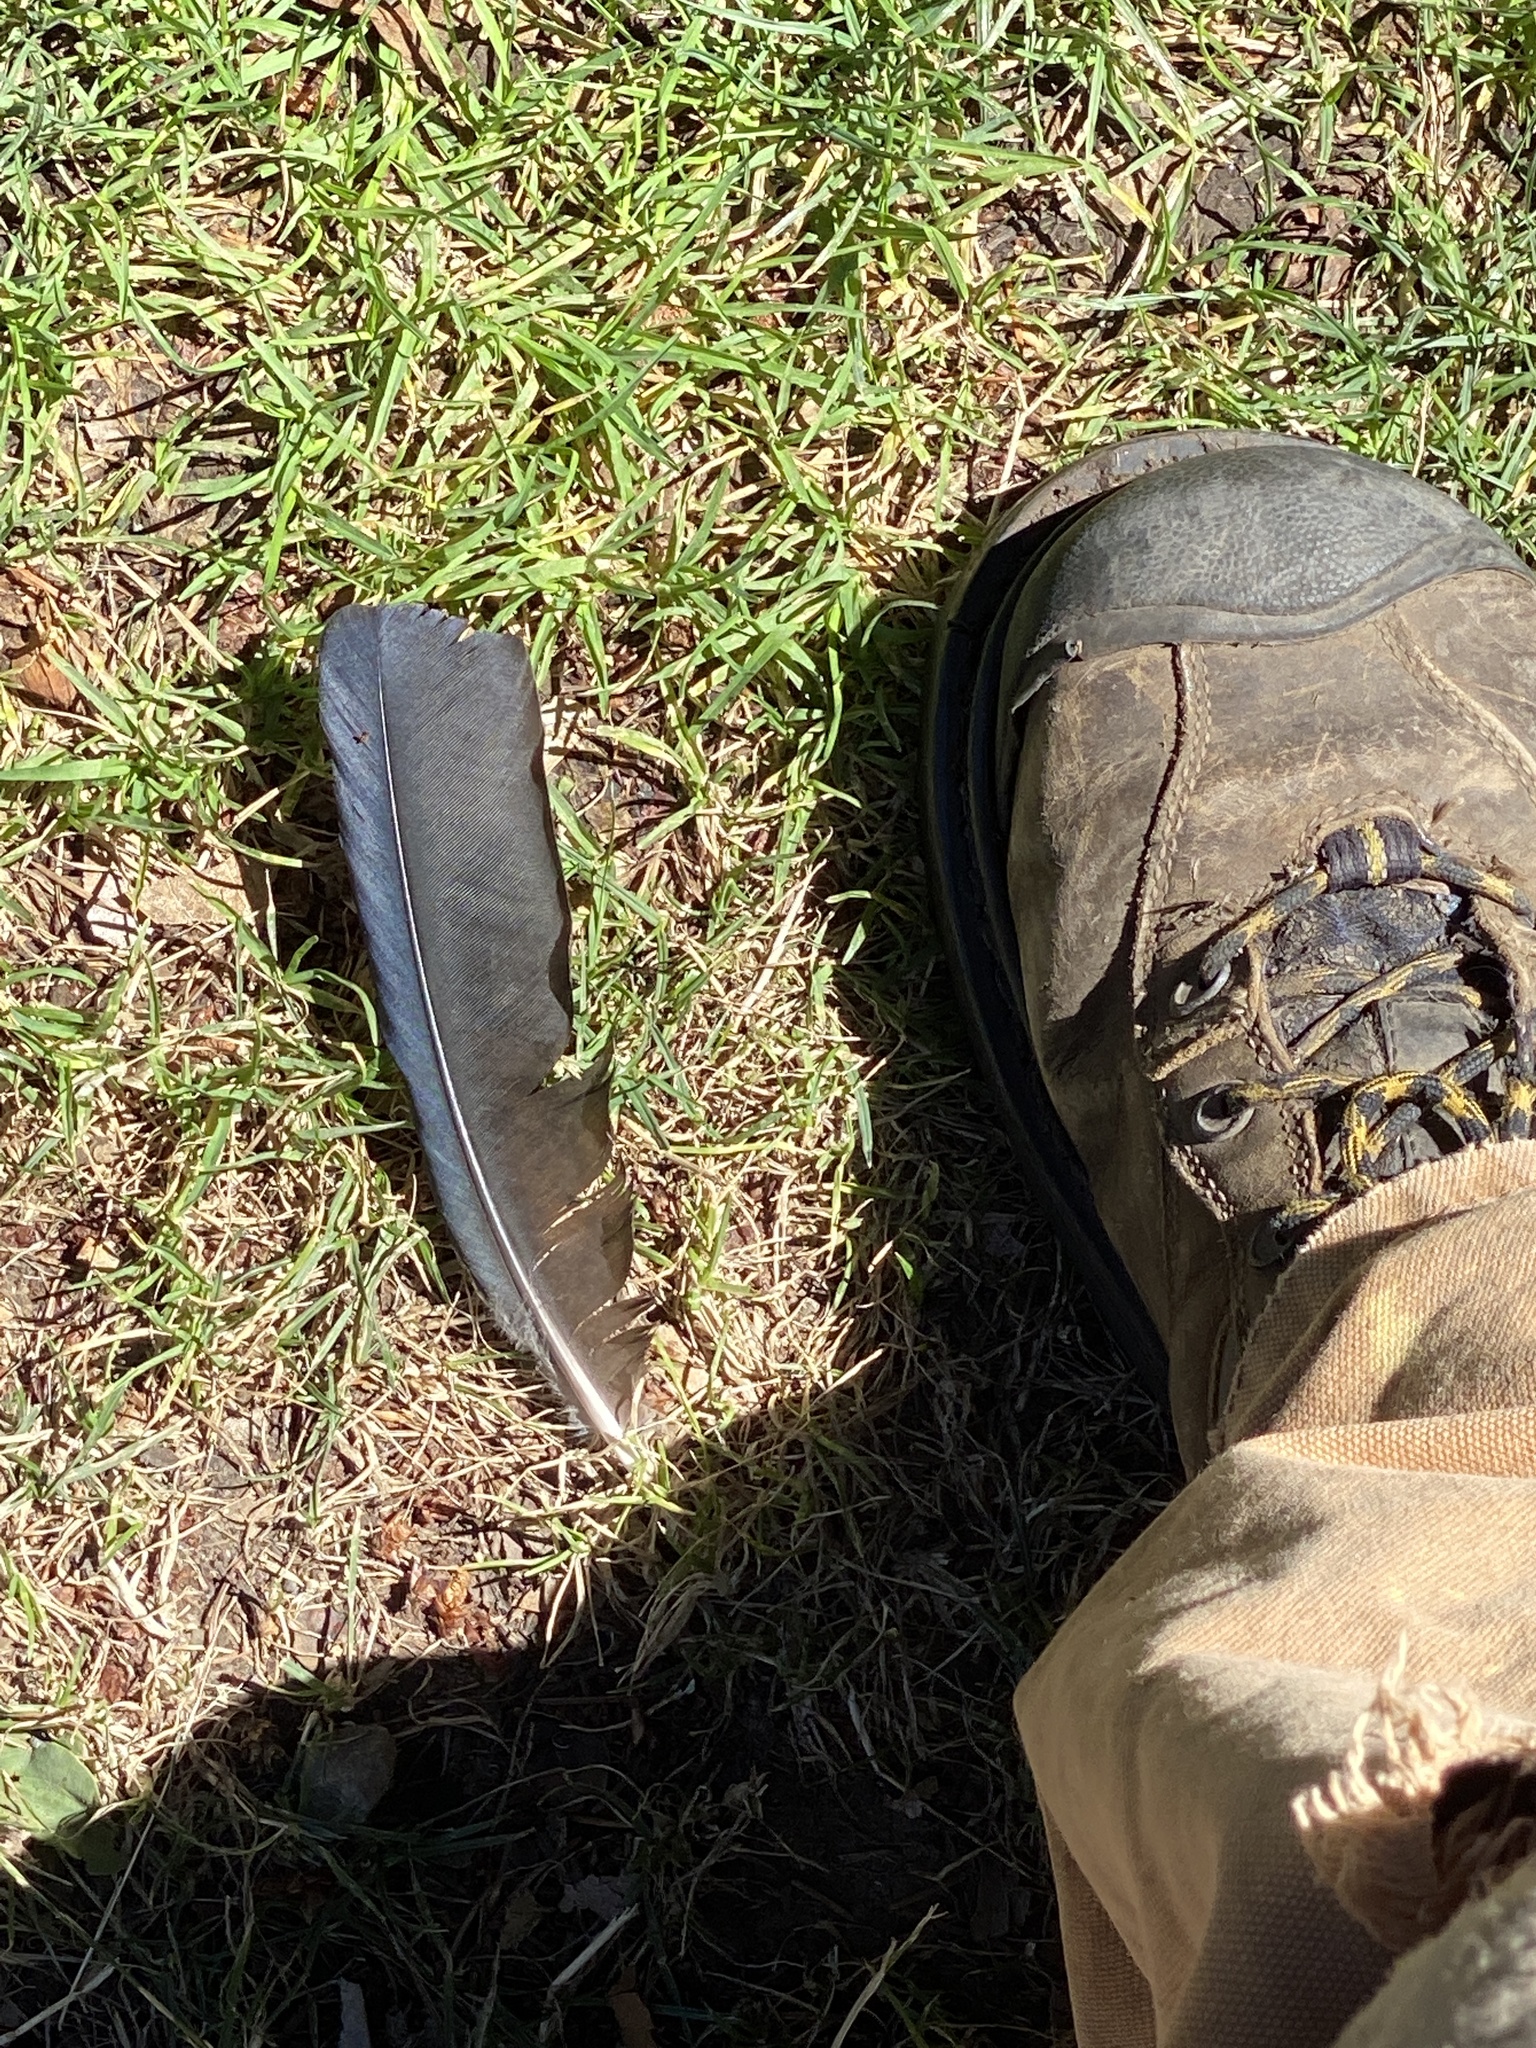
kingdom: Animalia
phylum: Chordata
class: Aves
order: Passeriformes
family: Corvidae
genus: Corvus
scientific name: Corvus brachyrhynchos
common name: American crow
